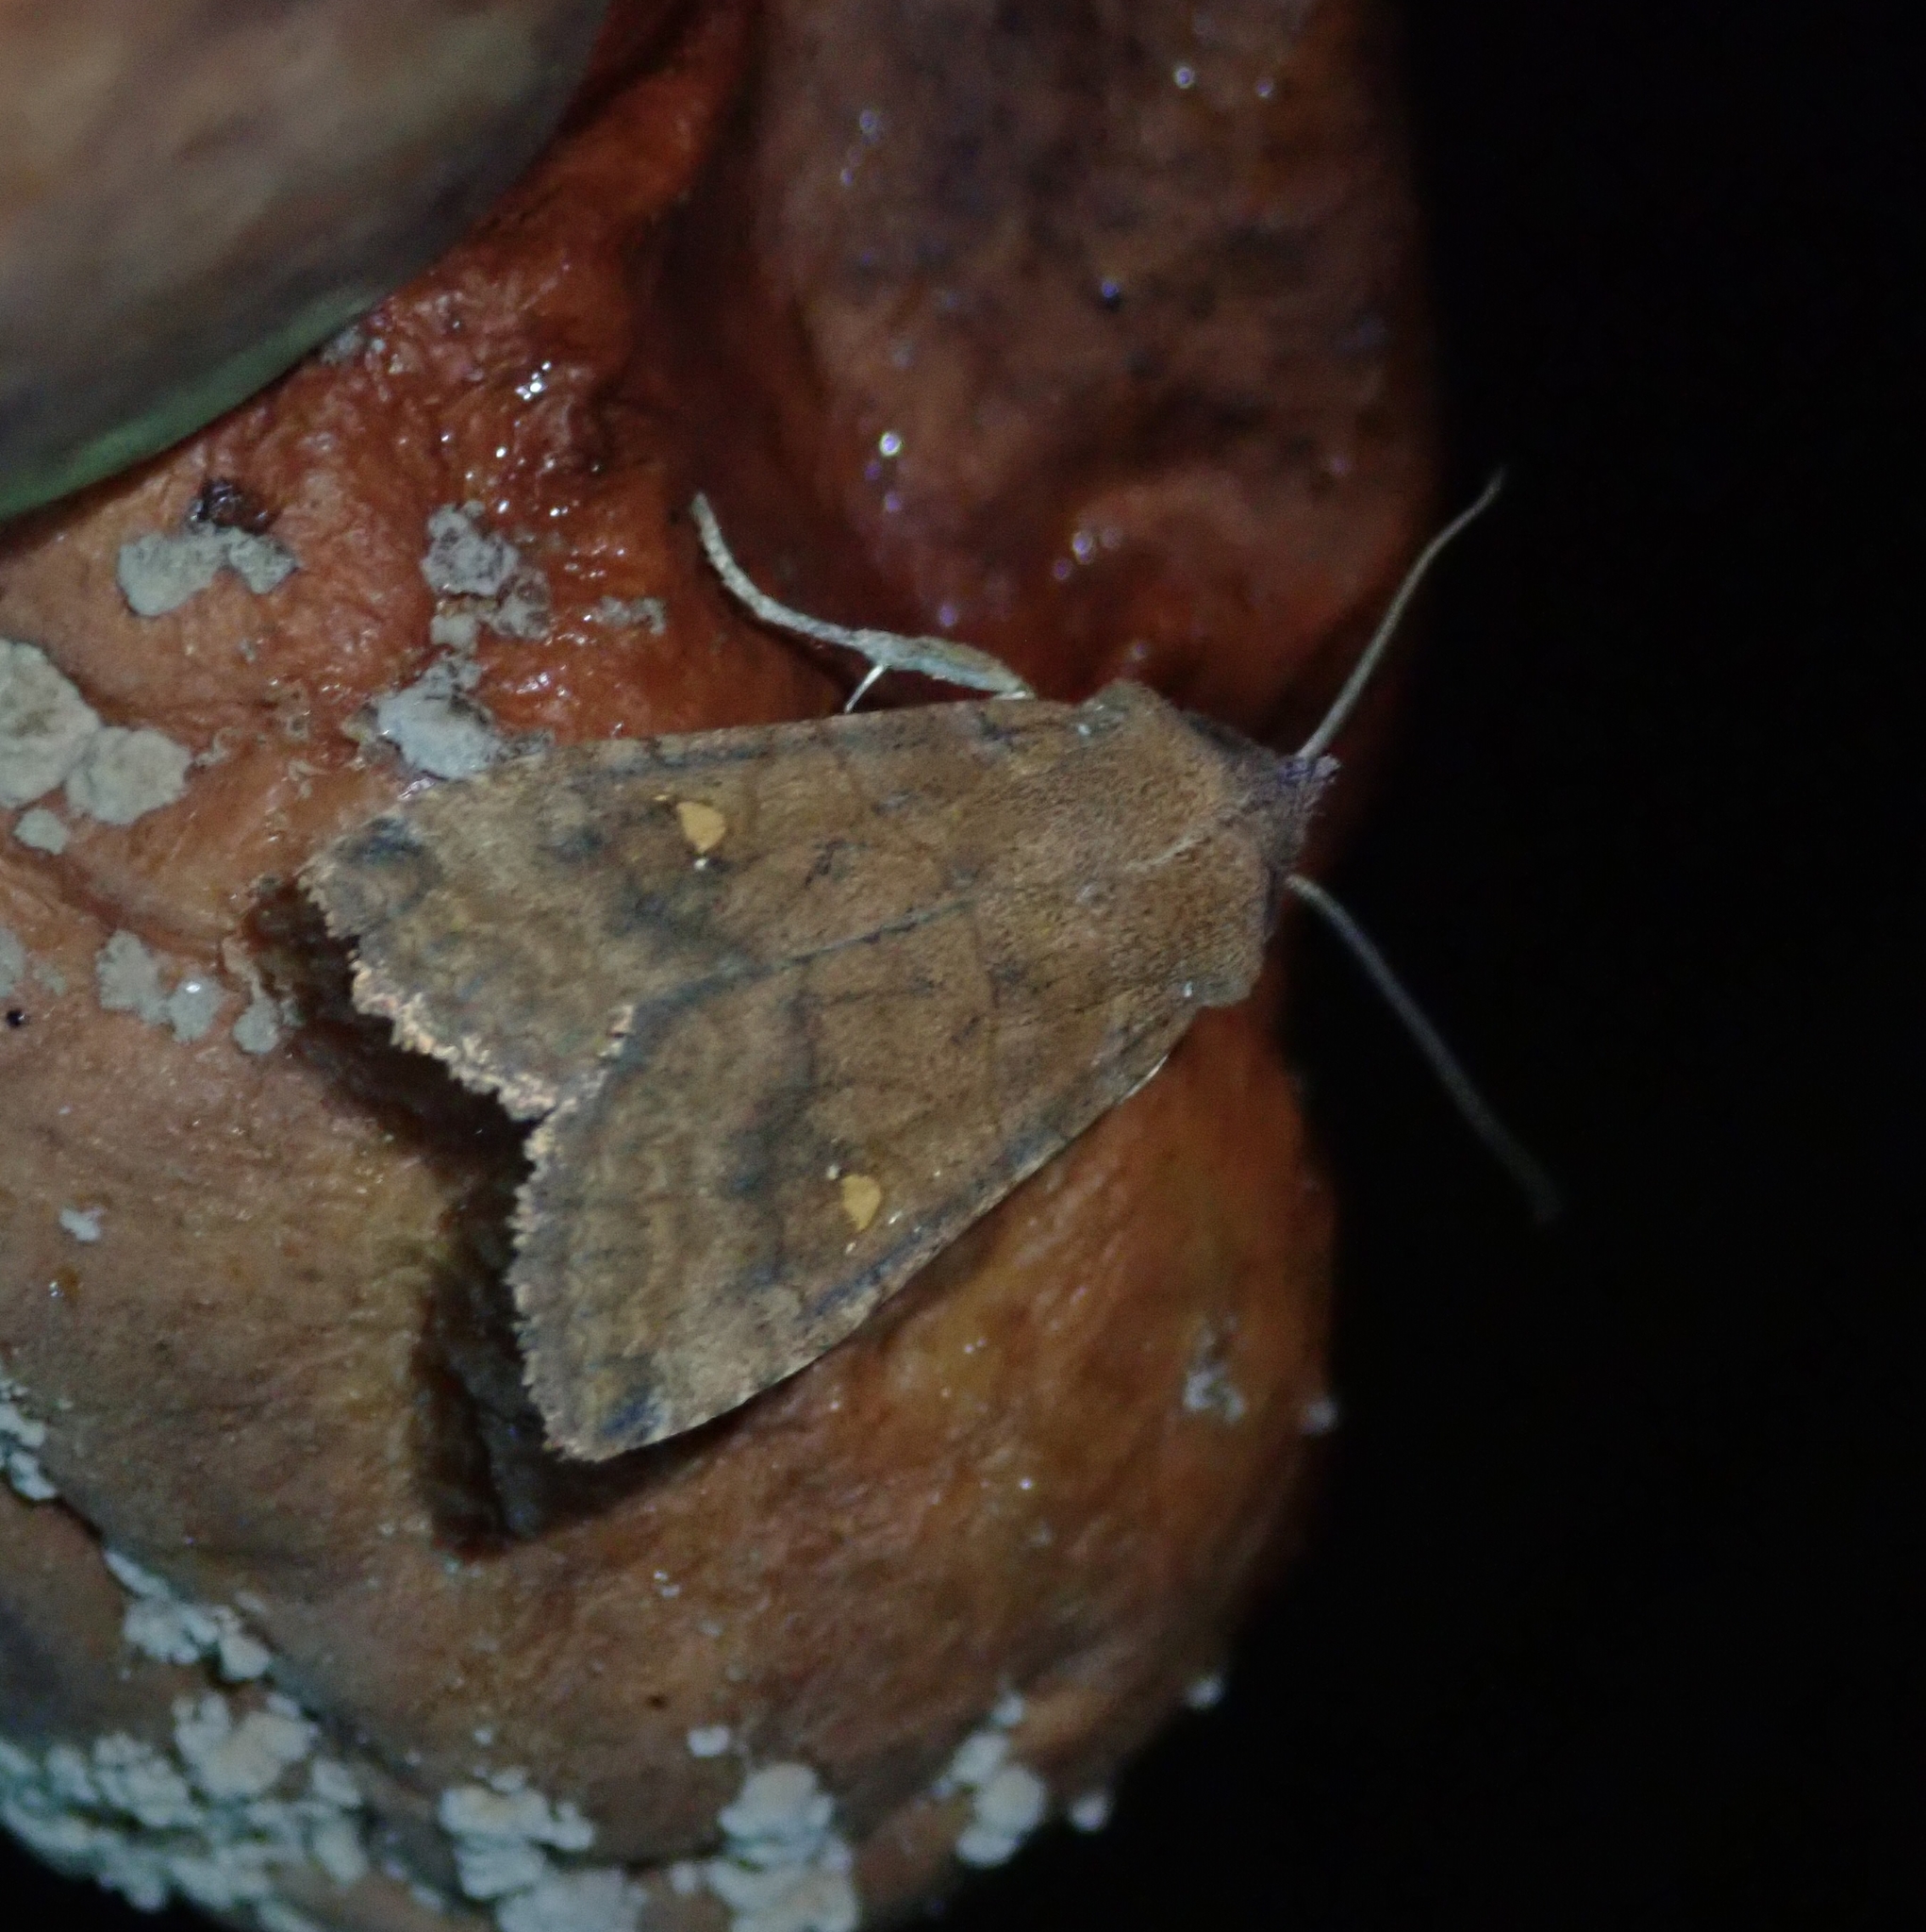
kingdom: Animalia
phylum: Arthropoda
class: Insecta
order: Lepidoptera
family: Noctuidae
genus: Eupsilia
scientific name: Eupsilia transversa
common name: Satellite
